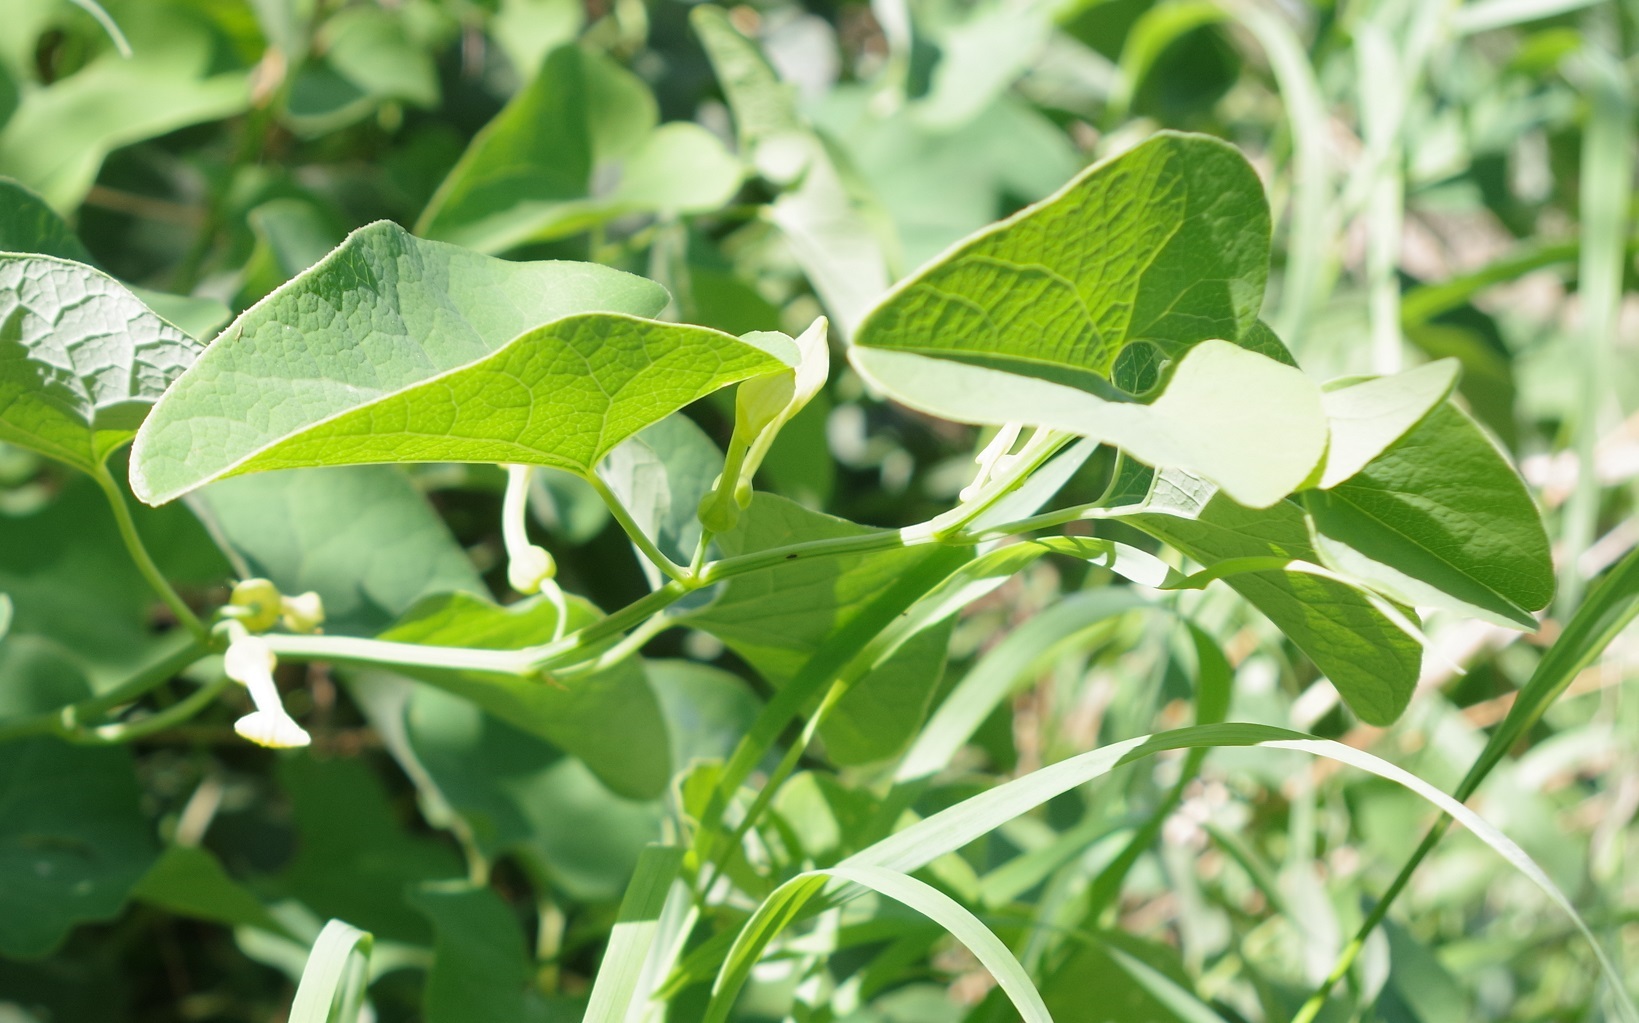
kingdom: Plantae
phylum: Tracheophyta
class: Magnoliopsida
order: Piperales
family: Aristolochiaceae
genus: Aristolochia
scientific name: Aristolochia clematitis
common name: Birthwort
